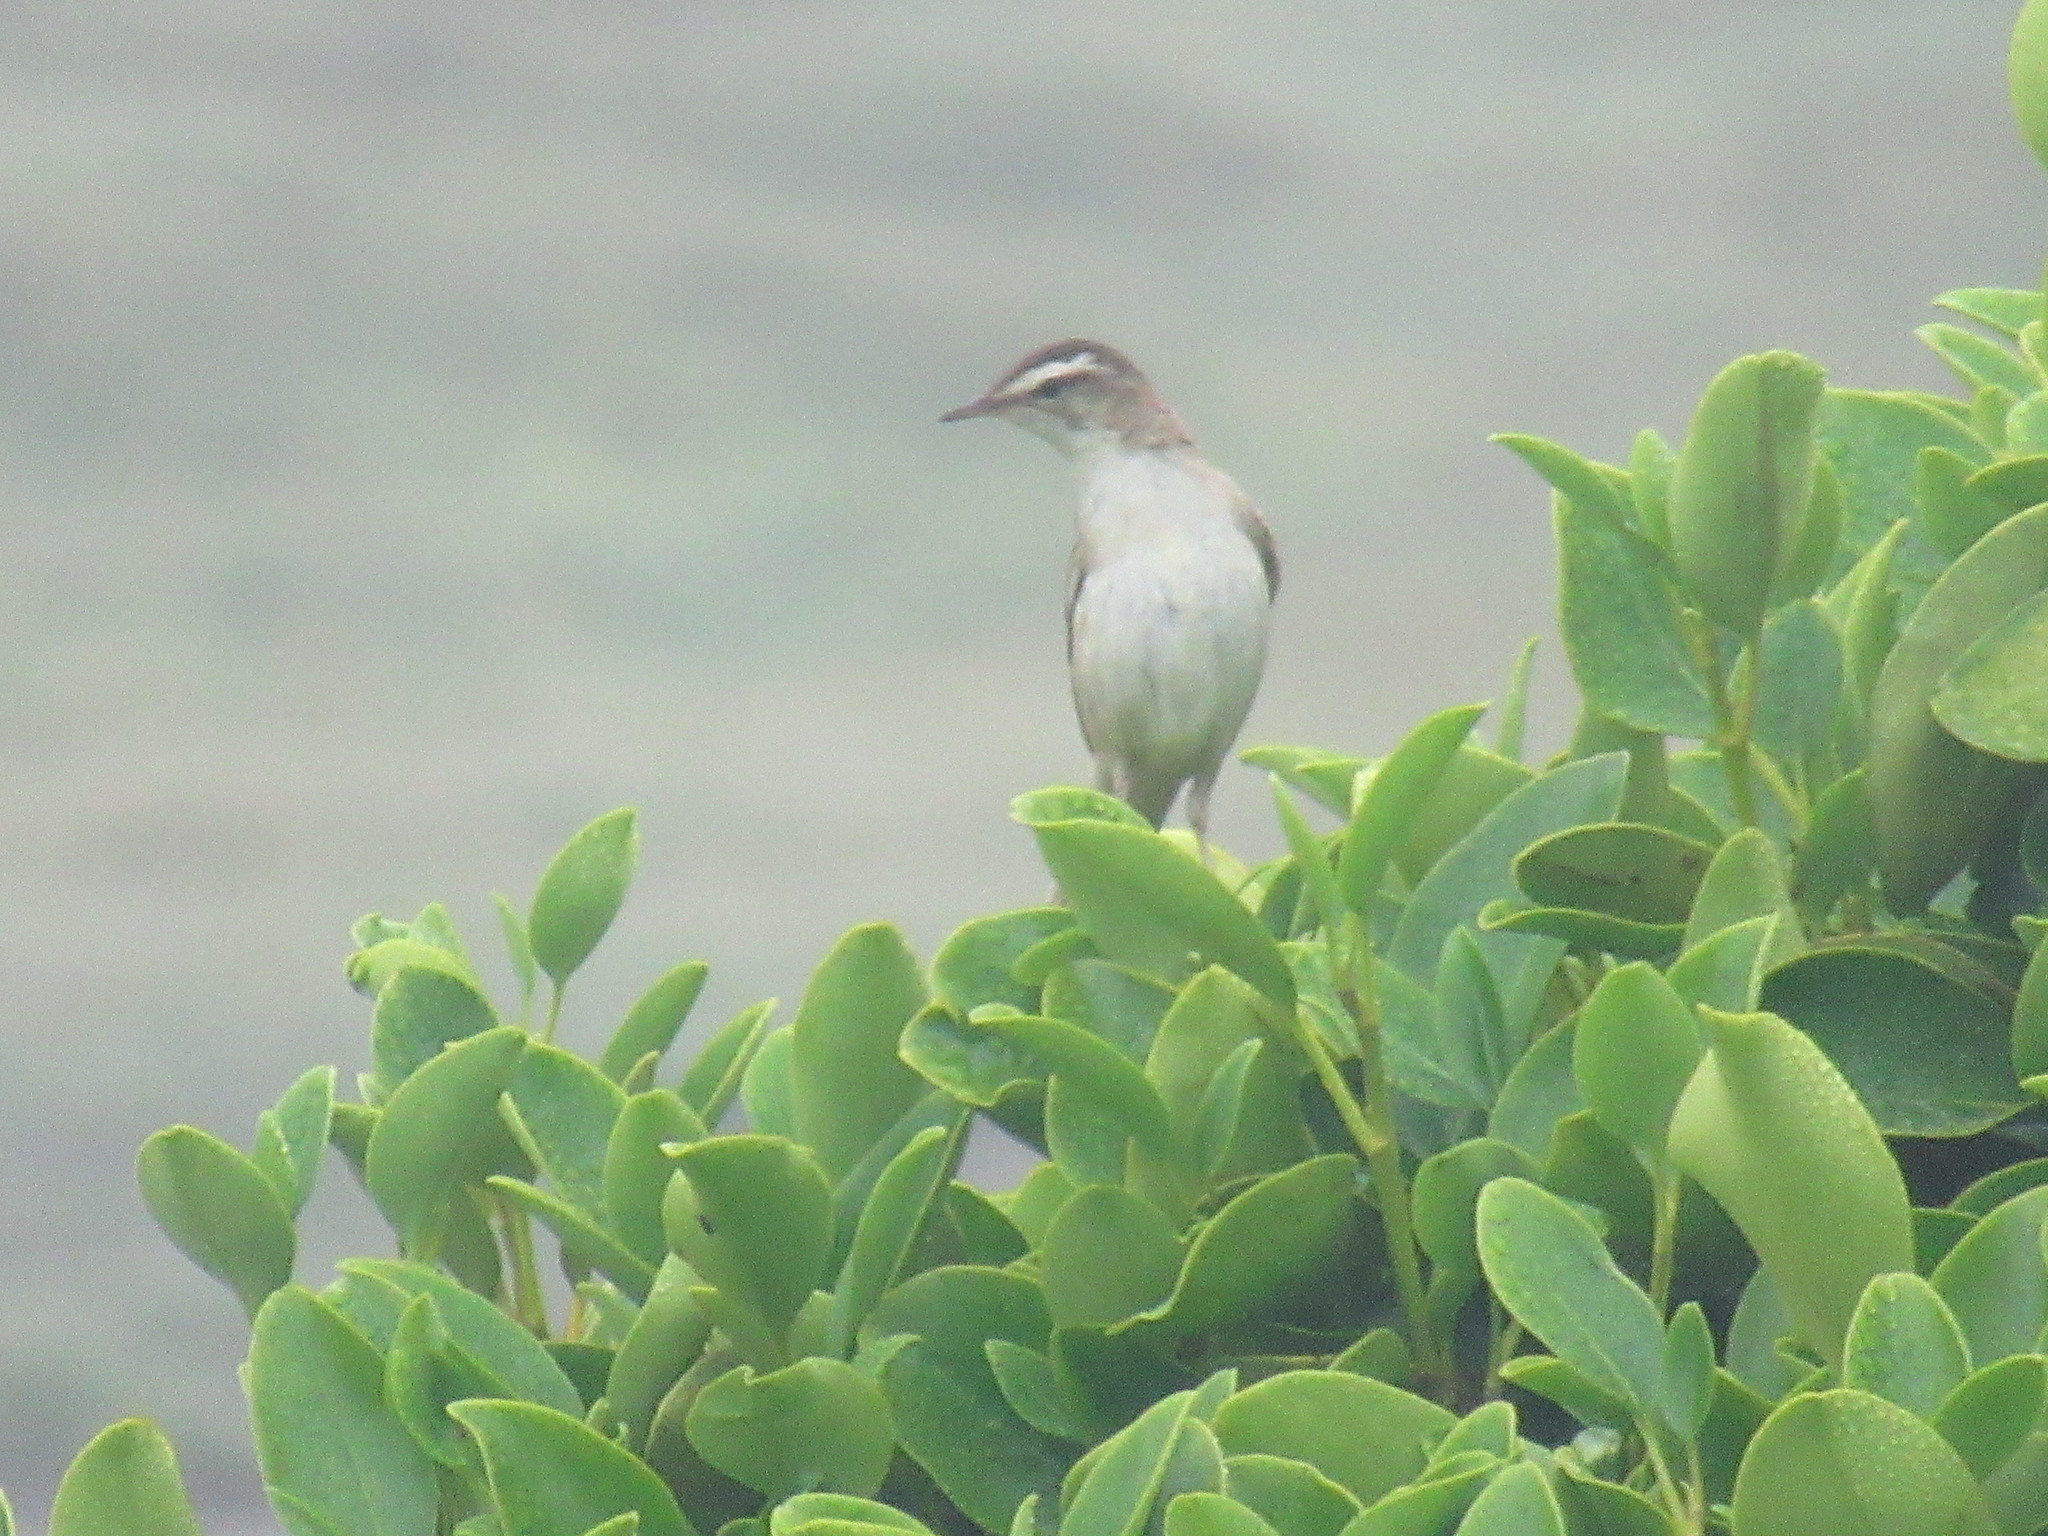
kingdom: Animalia
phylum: Chordata
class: Aves
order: Passeriformes
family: Acrocephalidae
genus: Acrocephalus
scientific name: Acrocephalus schoenobaenus
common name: Sedge warbler
